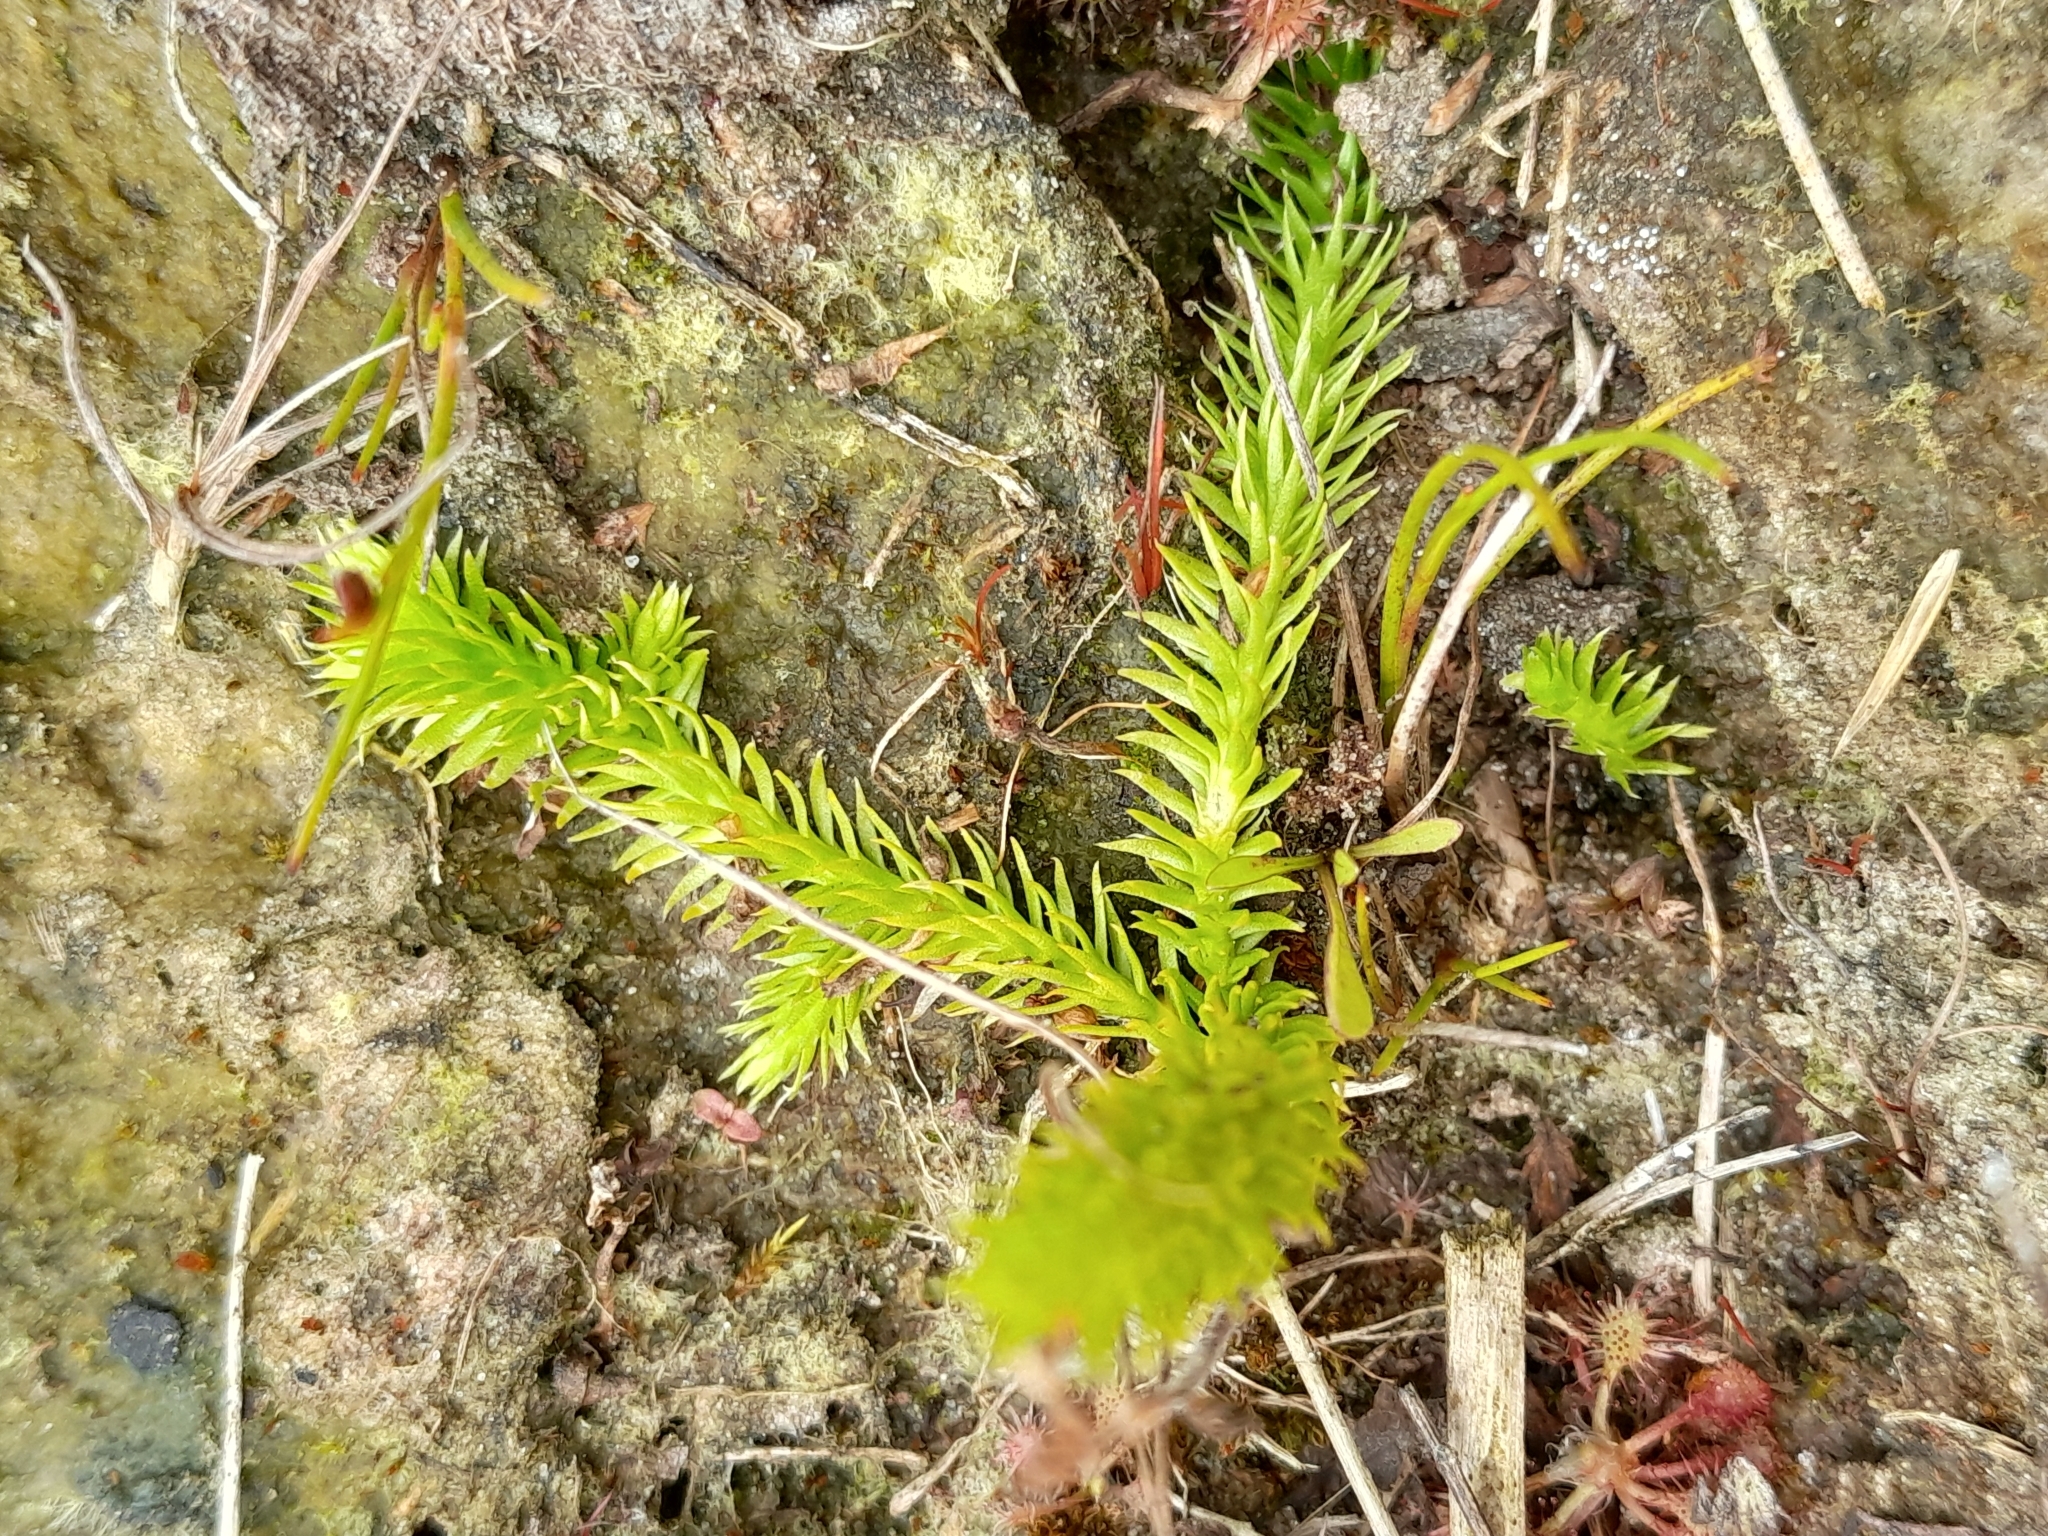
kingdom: Plantae
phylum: Tracheophyta
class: Lycopodiopsida
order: Lycopodiales
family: Lycopodiaceae
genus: Lycopodiella
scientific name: Lycopodiella inundata
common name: Marsh clubmoss
